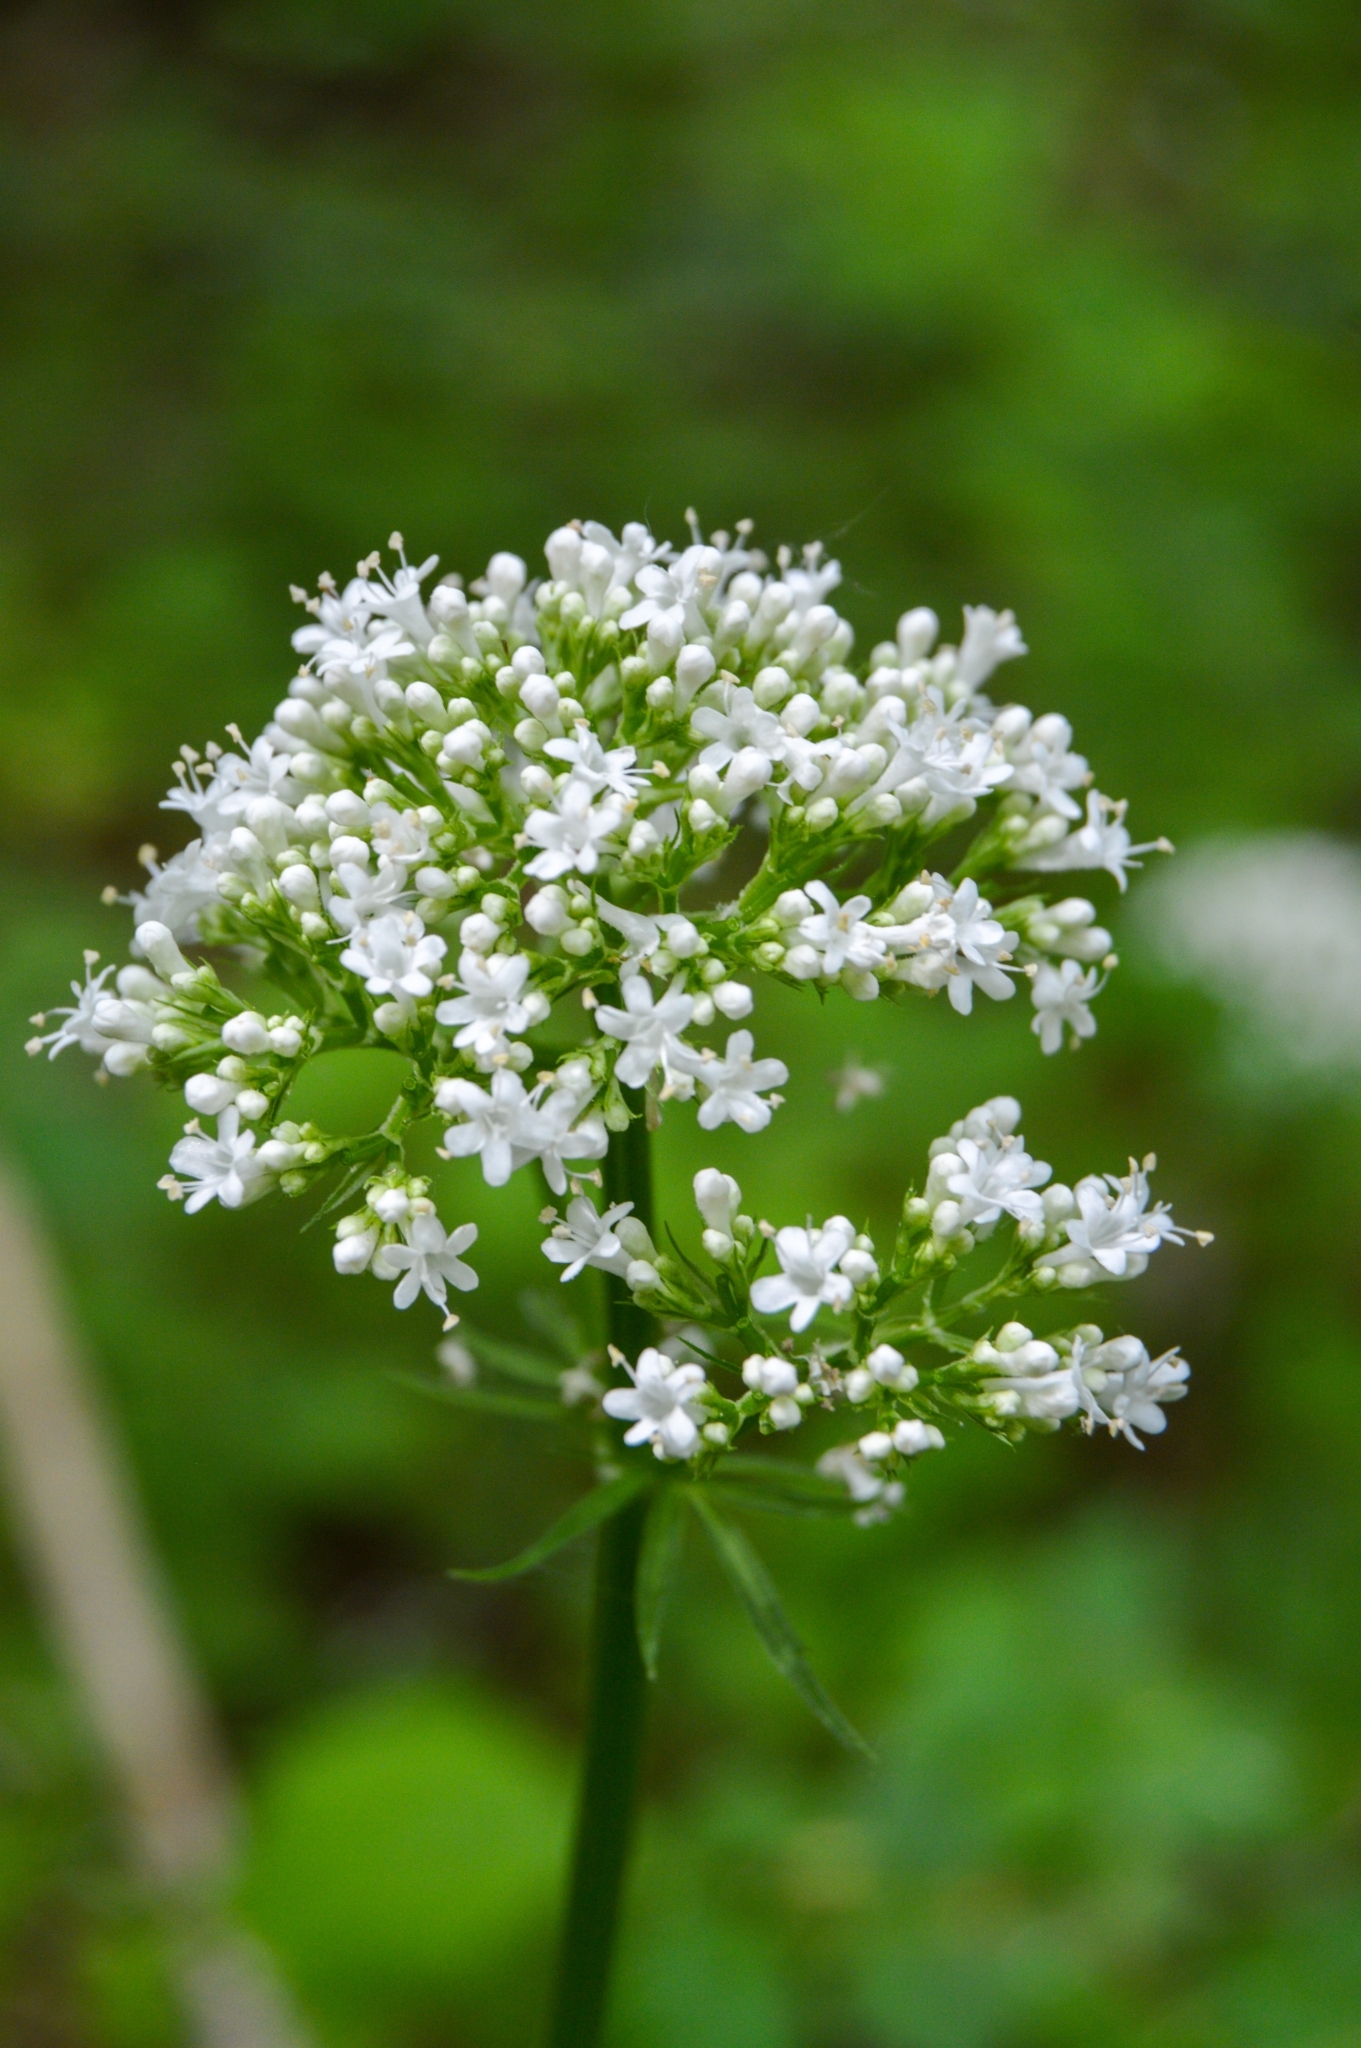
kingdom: Plantae
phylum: Tracheophyta
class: Magnoliopsida
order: Dipsacales
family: Caprifoliaceae
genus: Valeriana
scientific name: Valeriana wolgensis
